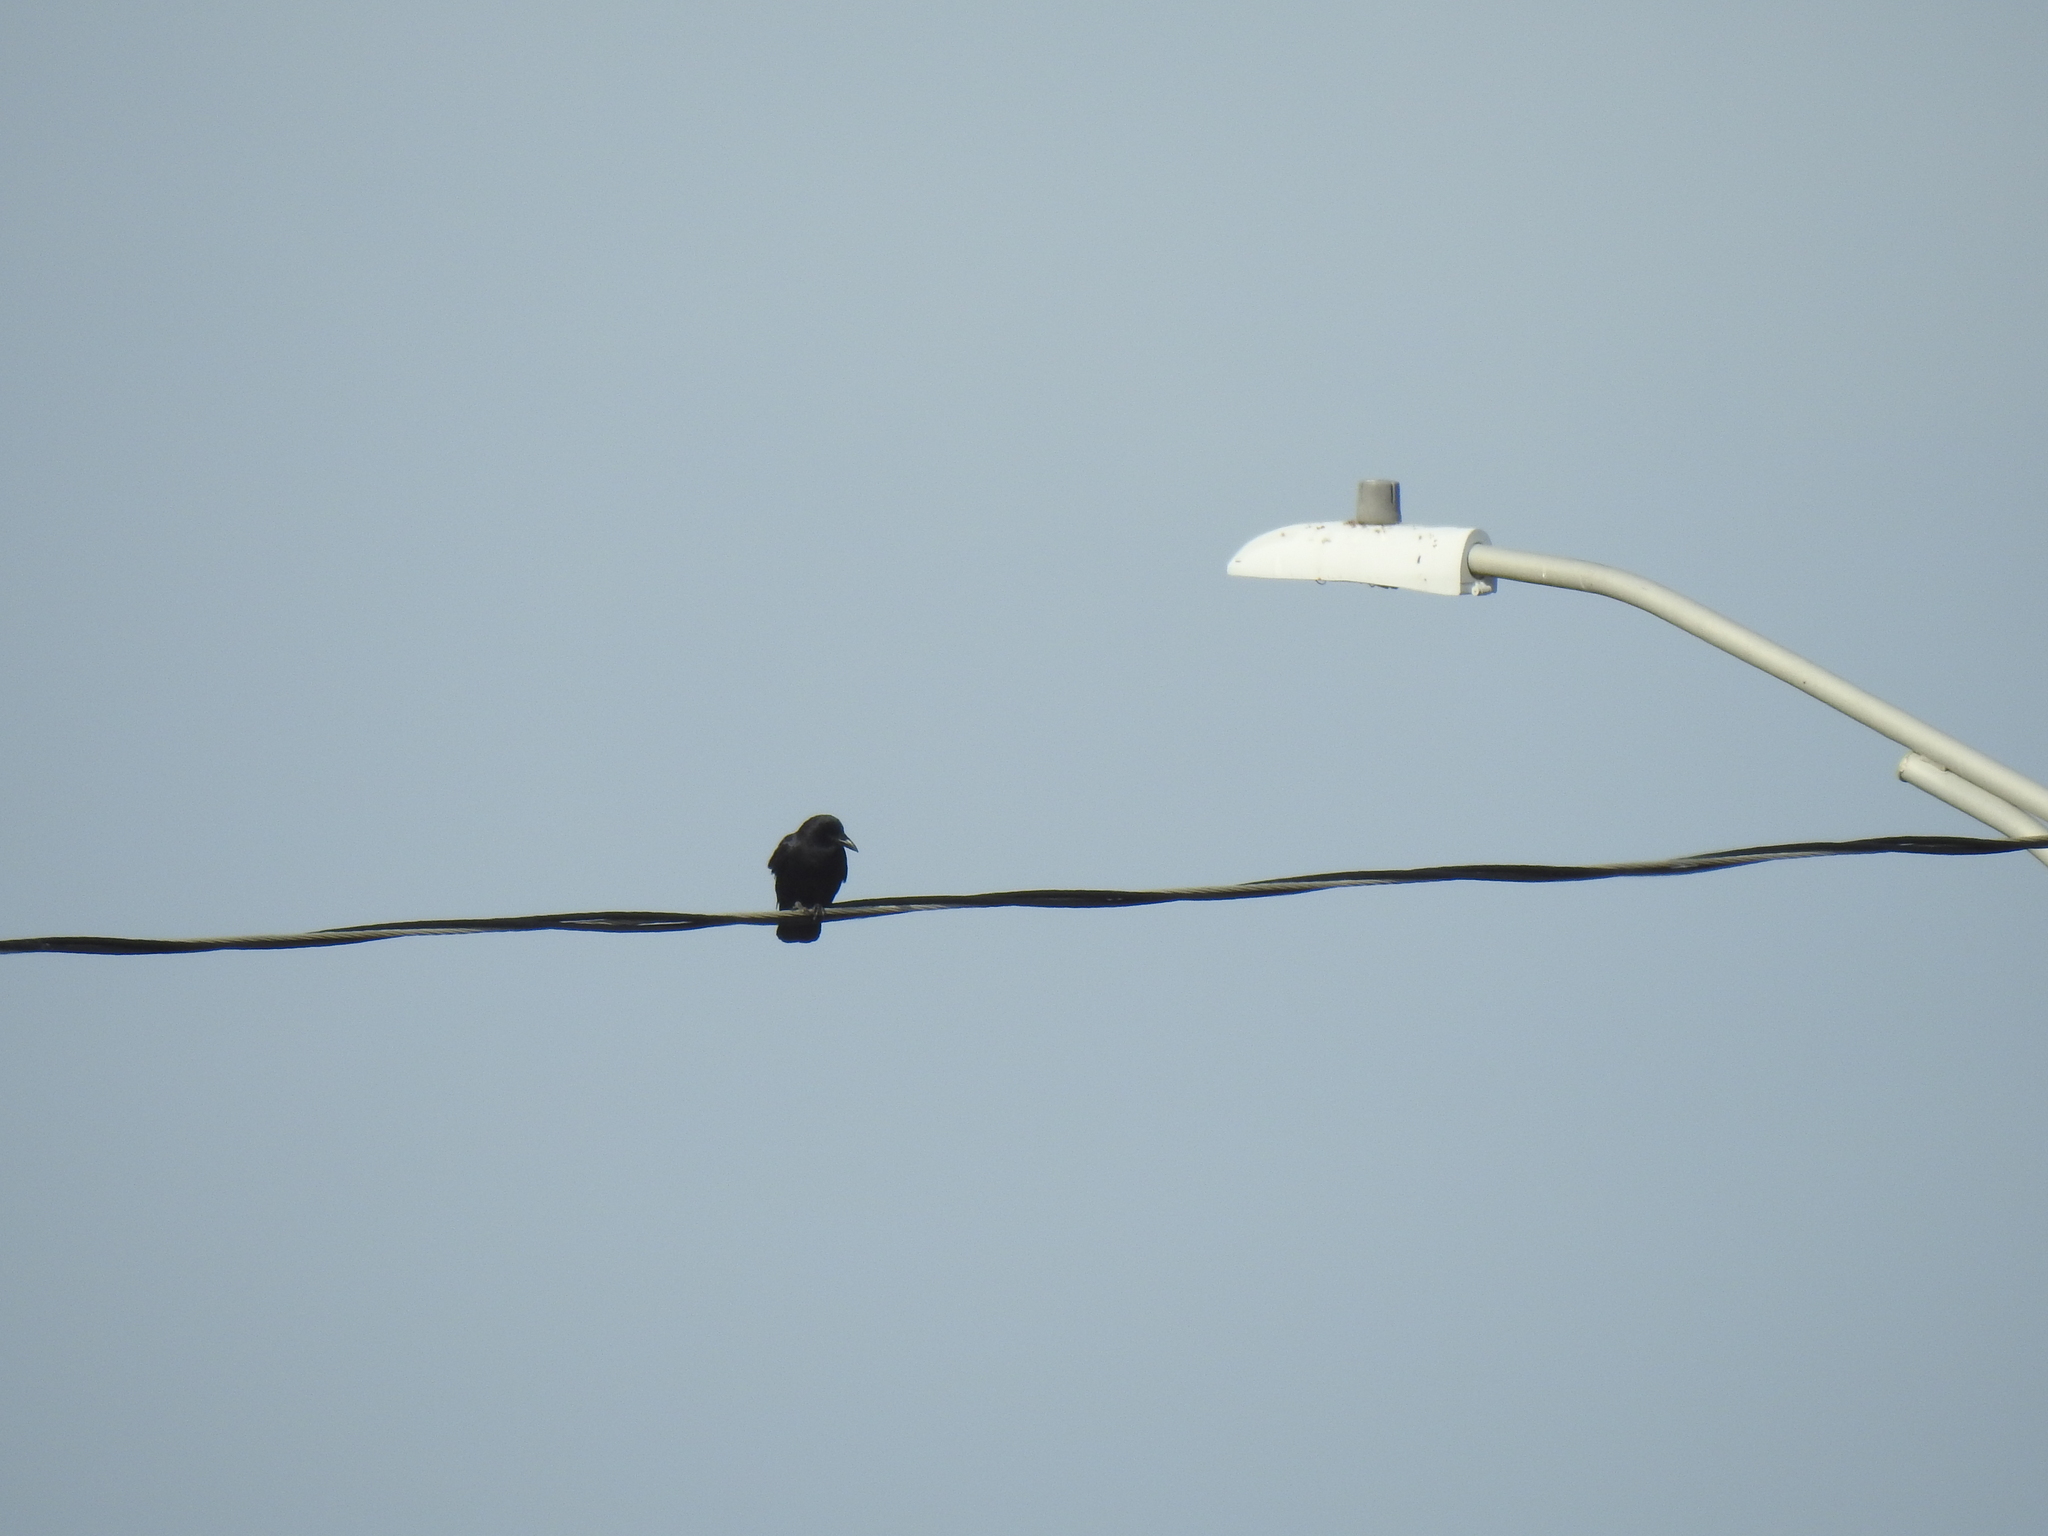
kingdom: Animalia
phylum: Chordata
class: Aves
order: Passeriformes
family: Corvidae
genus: Corvus
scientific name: Corvus brachyrhynchos
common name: American crow
